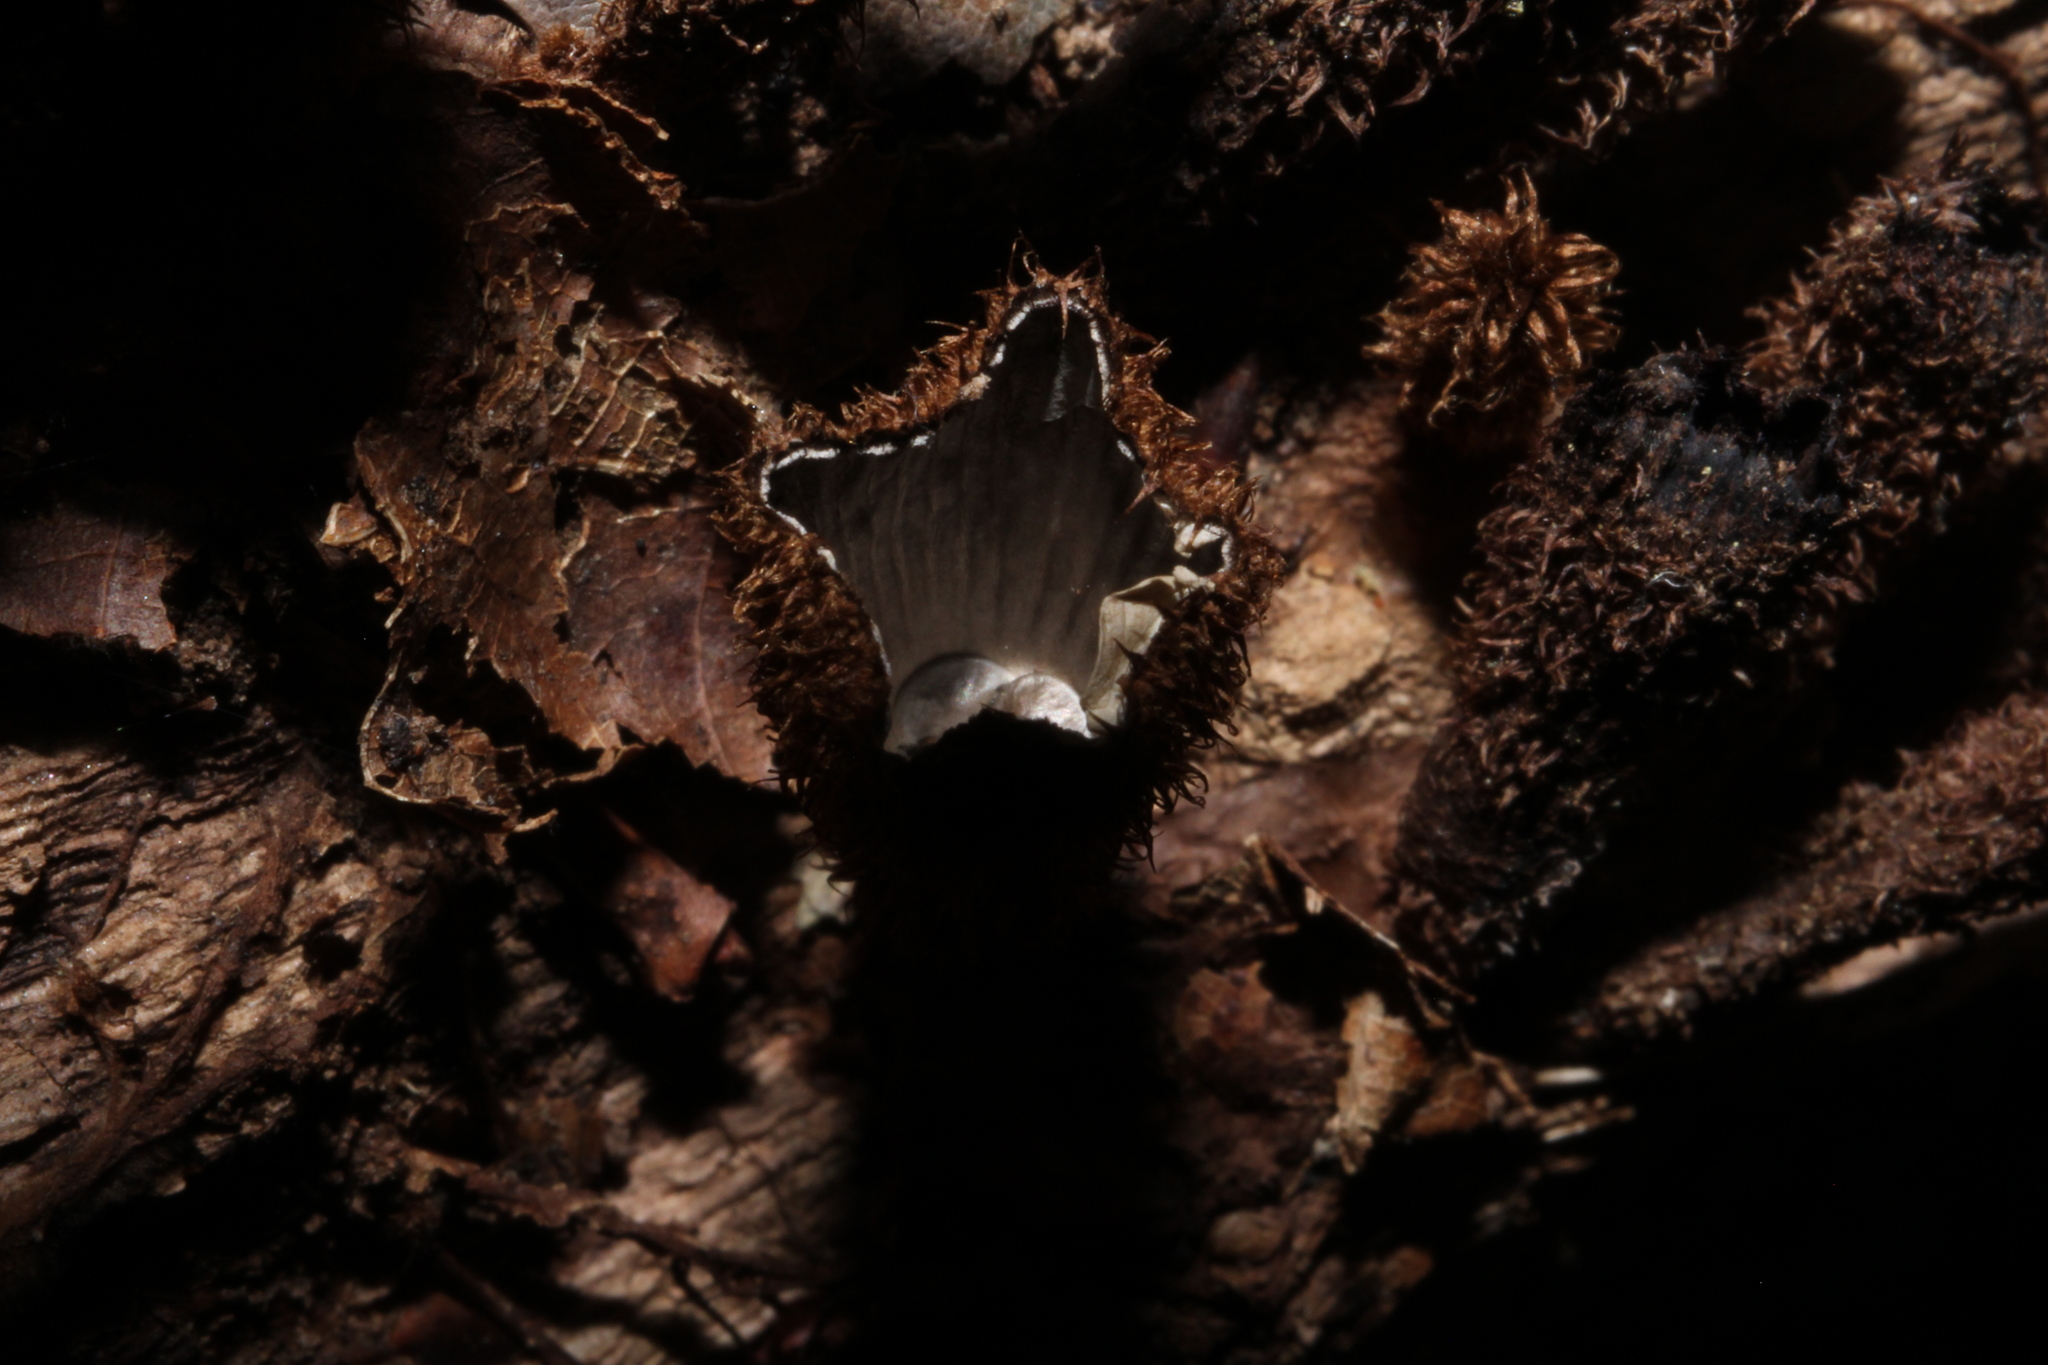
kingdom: Fungi
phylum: Basidiomycota
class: Agaricomycetes
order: Agaricales
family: Agaricaceae
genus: Cyathus
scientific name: Cyathus striatus
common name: Fluted bird's nest
